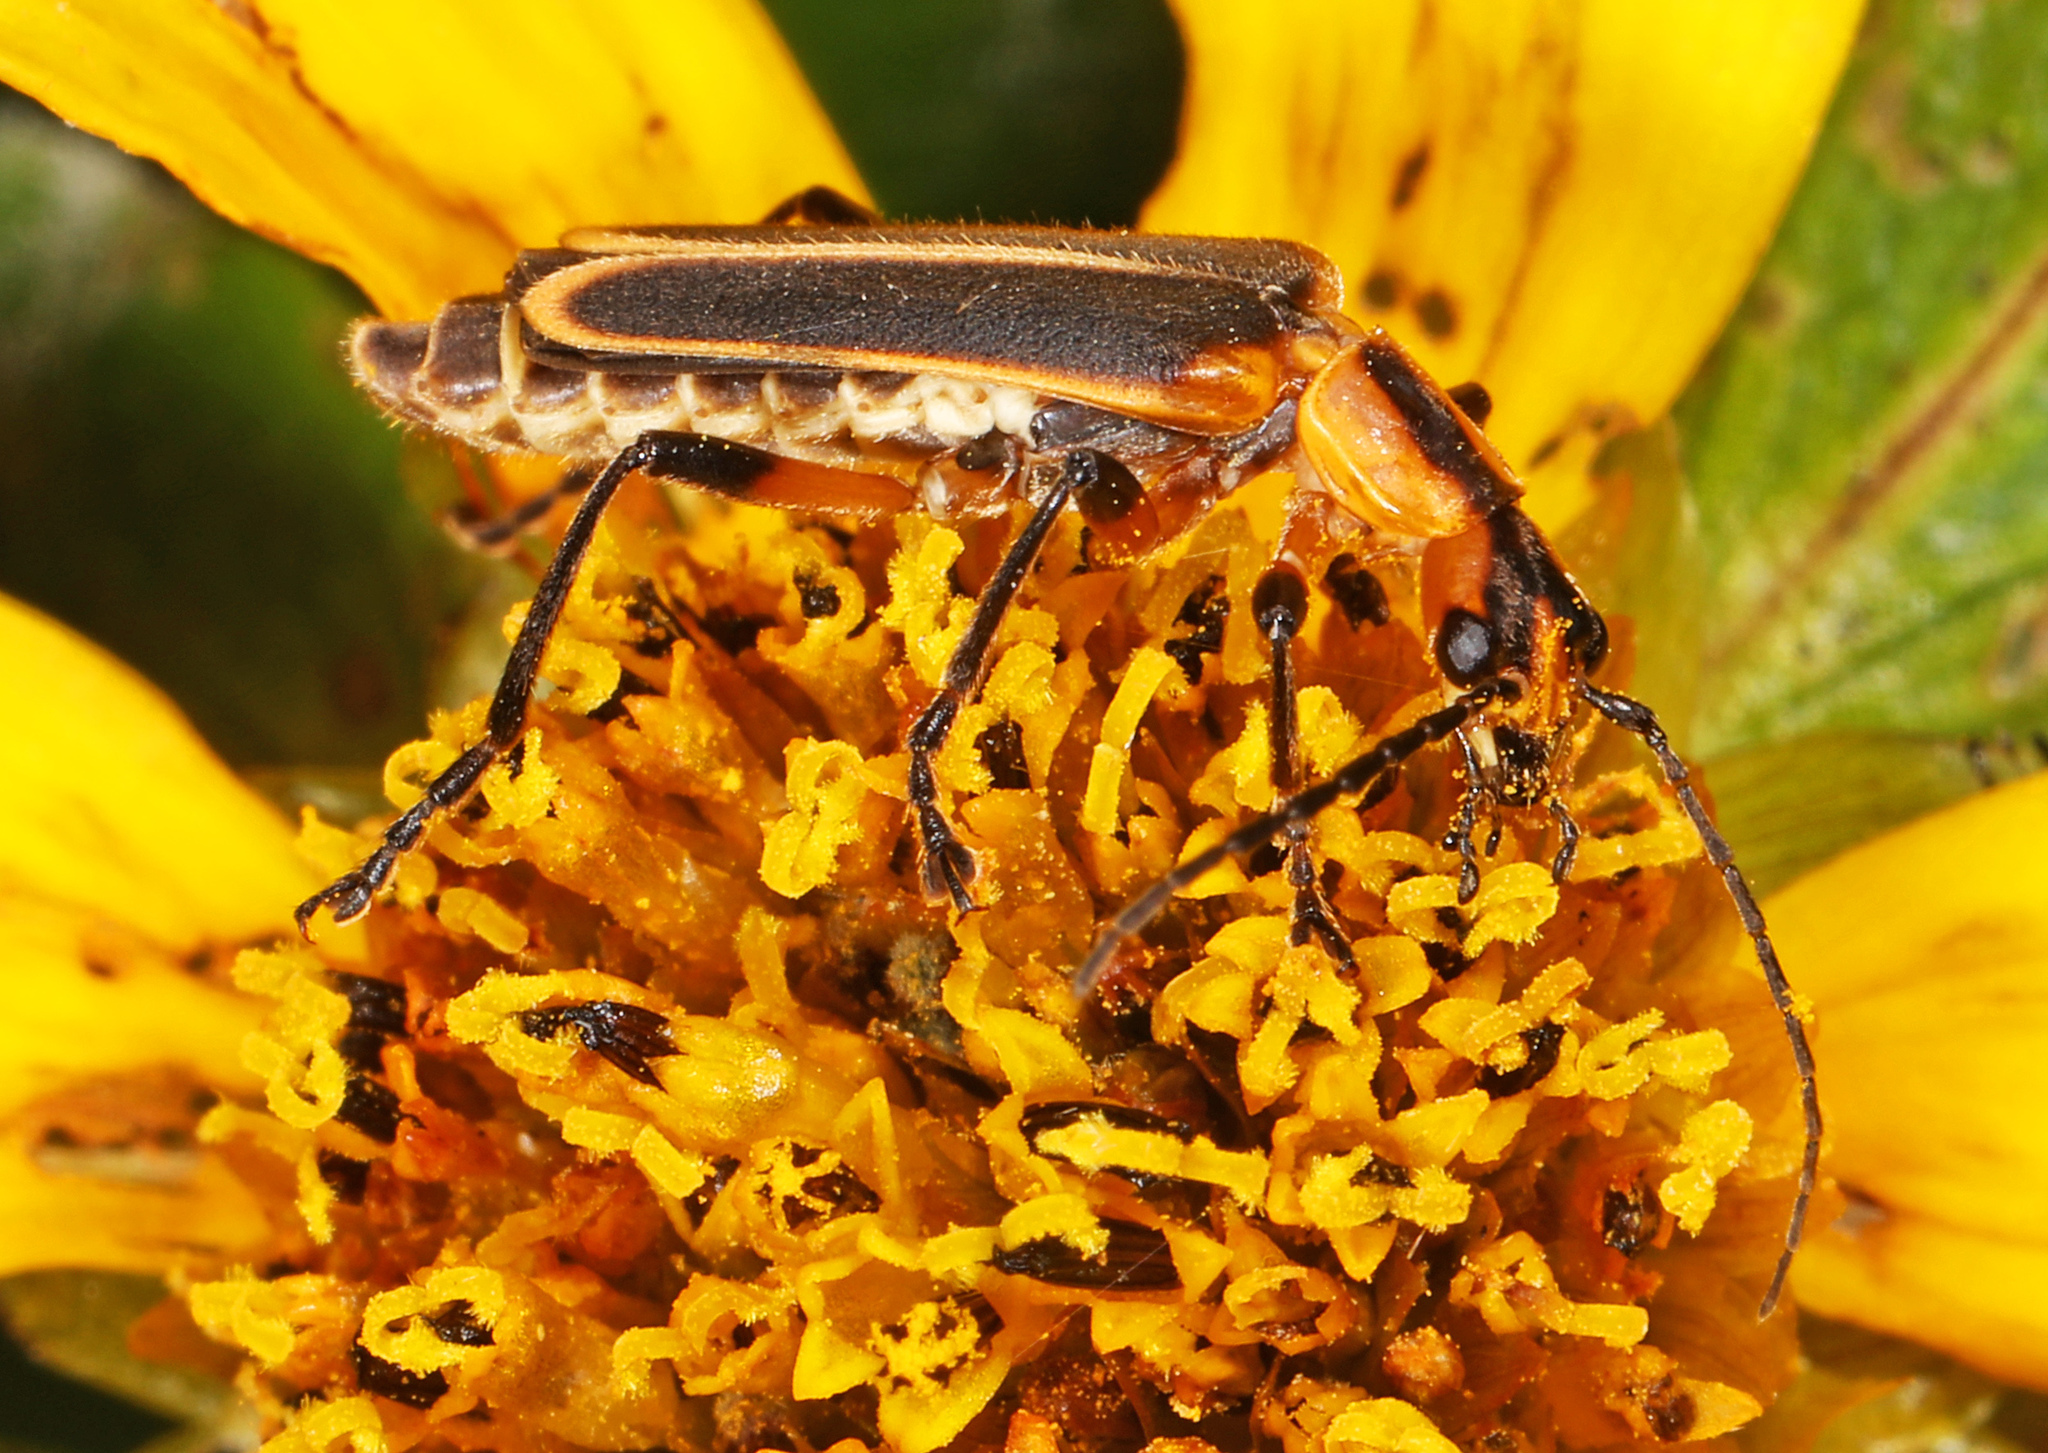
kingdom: Animalia
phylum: Arthropoda
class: Insecta
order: Coleoptera
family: Cantharidae
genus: Chauliognathus
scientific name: Chauliognathus marginatus
